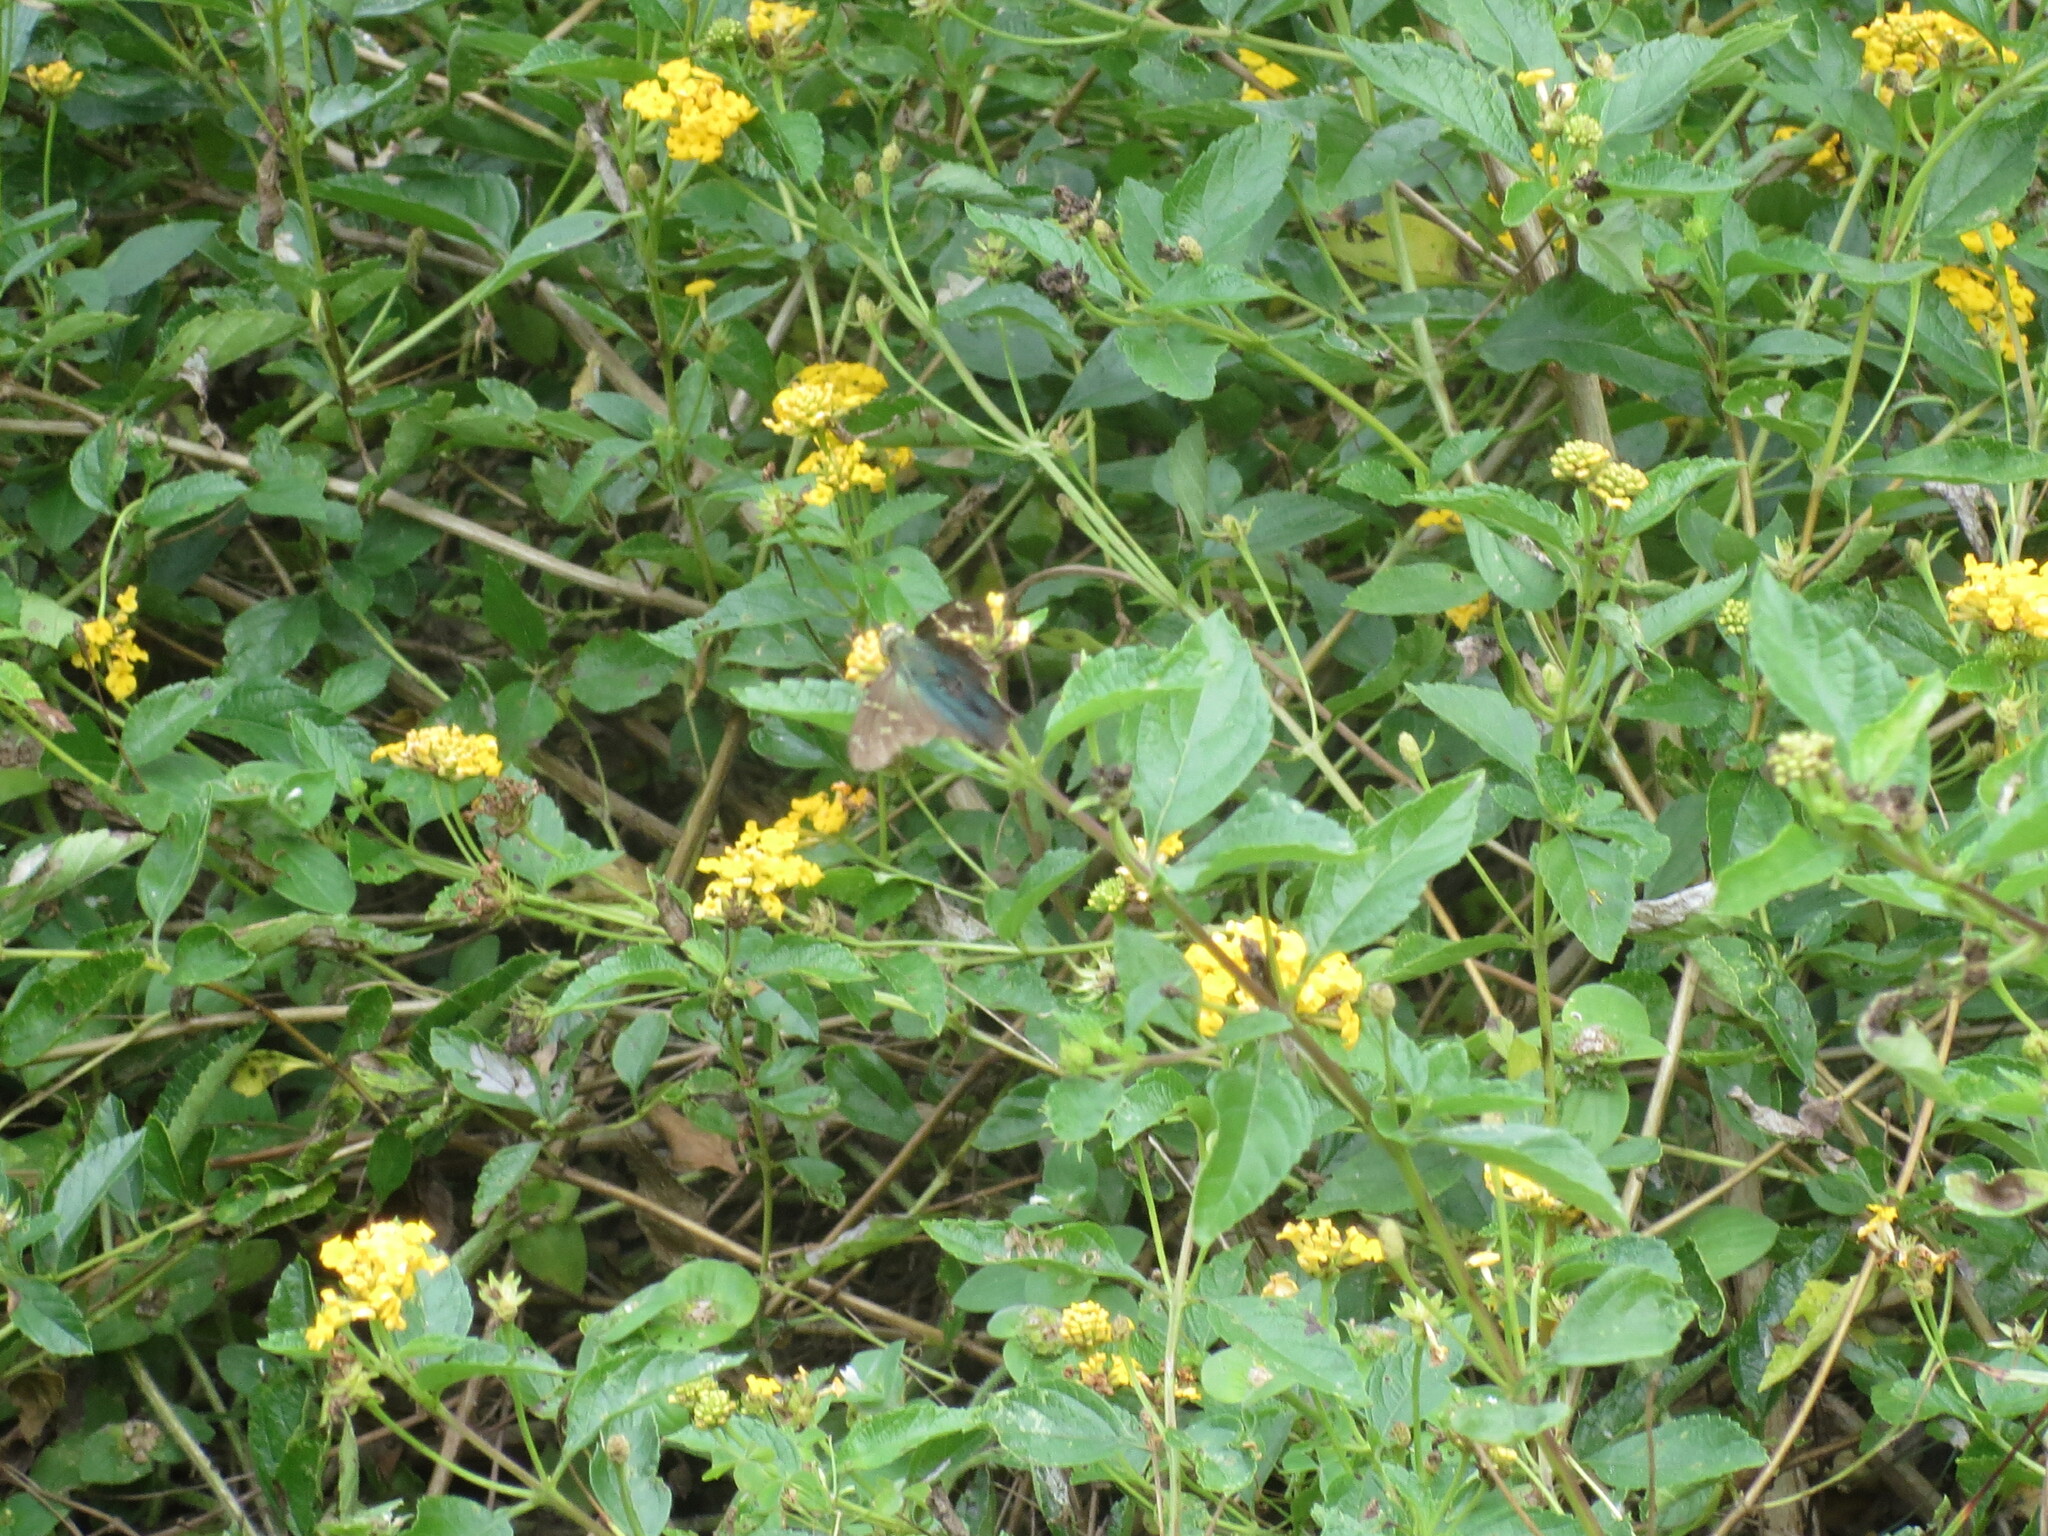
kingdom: Animalia
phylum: Arthropoda
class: Insecta
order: Lepidoptera
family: Hesperiidae
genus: Urbanus
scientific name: Urbanus proteus
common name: Long-tailed skipper
